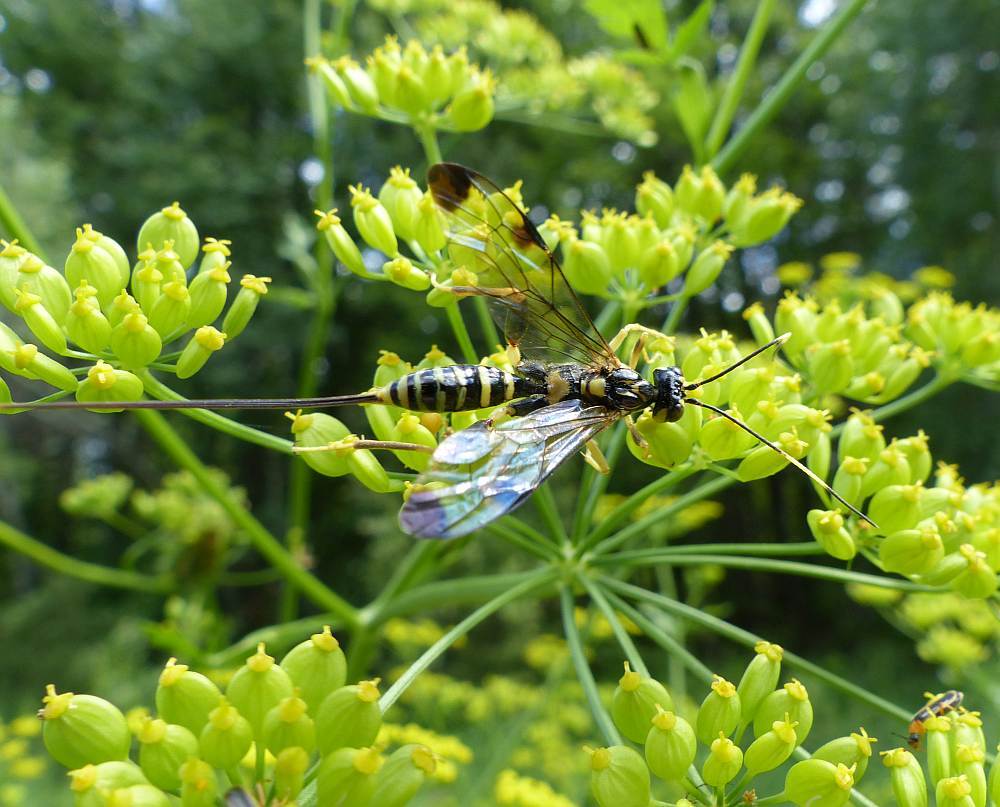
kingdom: Animalia
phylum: Arthropoda
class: Insecta
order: Hymenoptera
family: Ichneumonidae
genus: Spilopteron
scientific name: Spilopteron formosum
